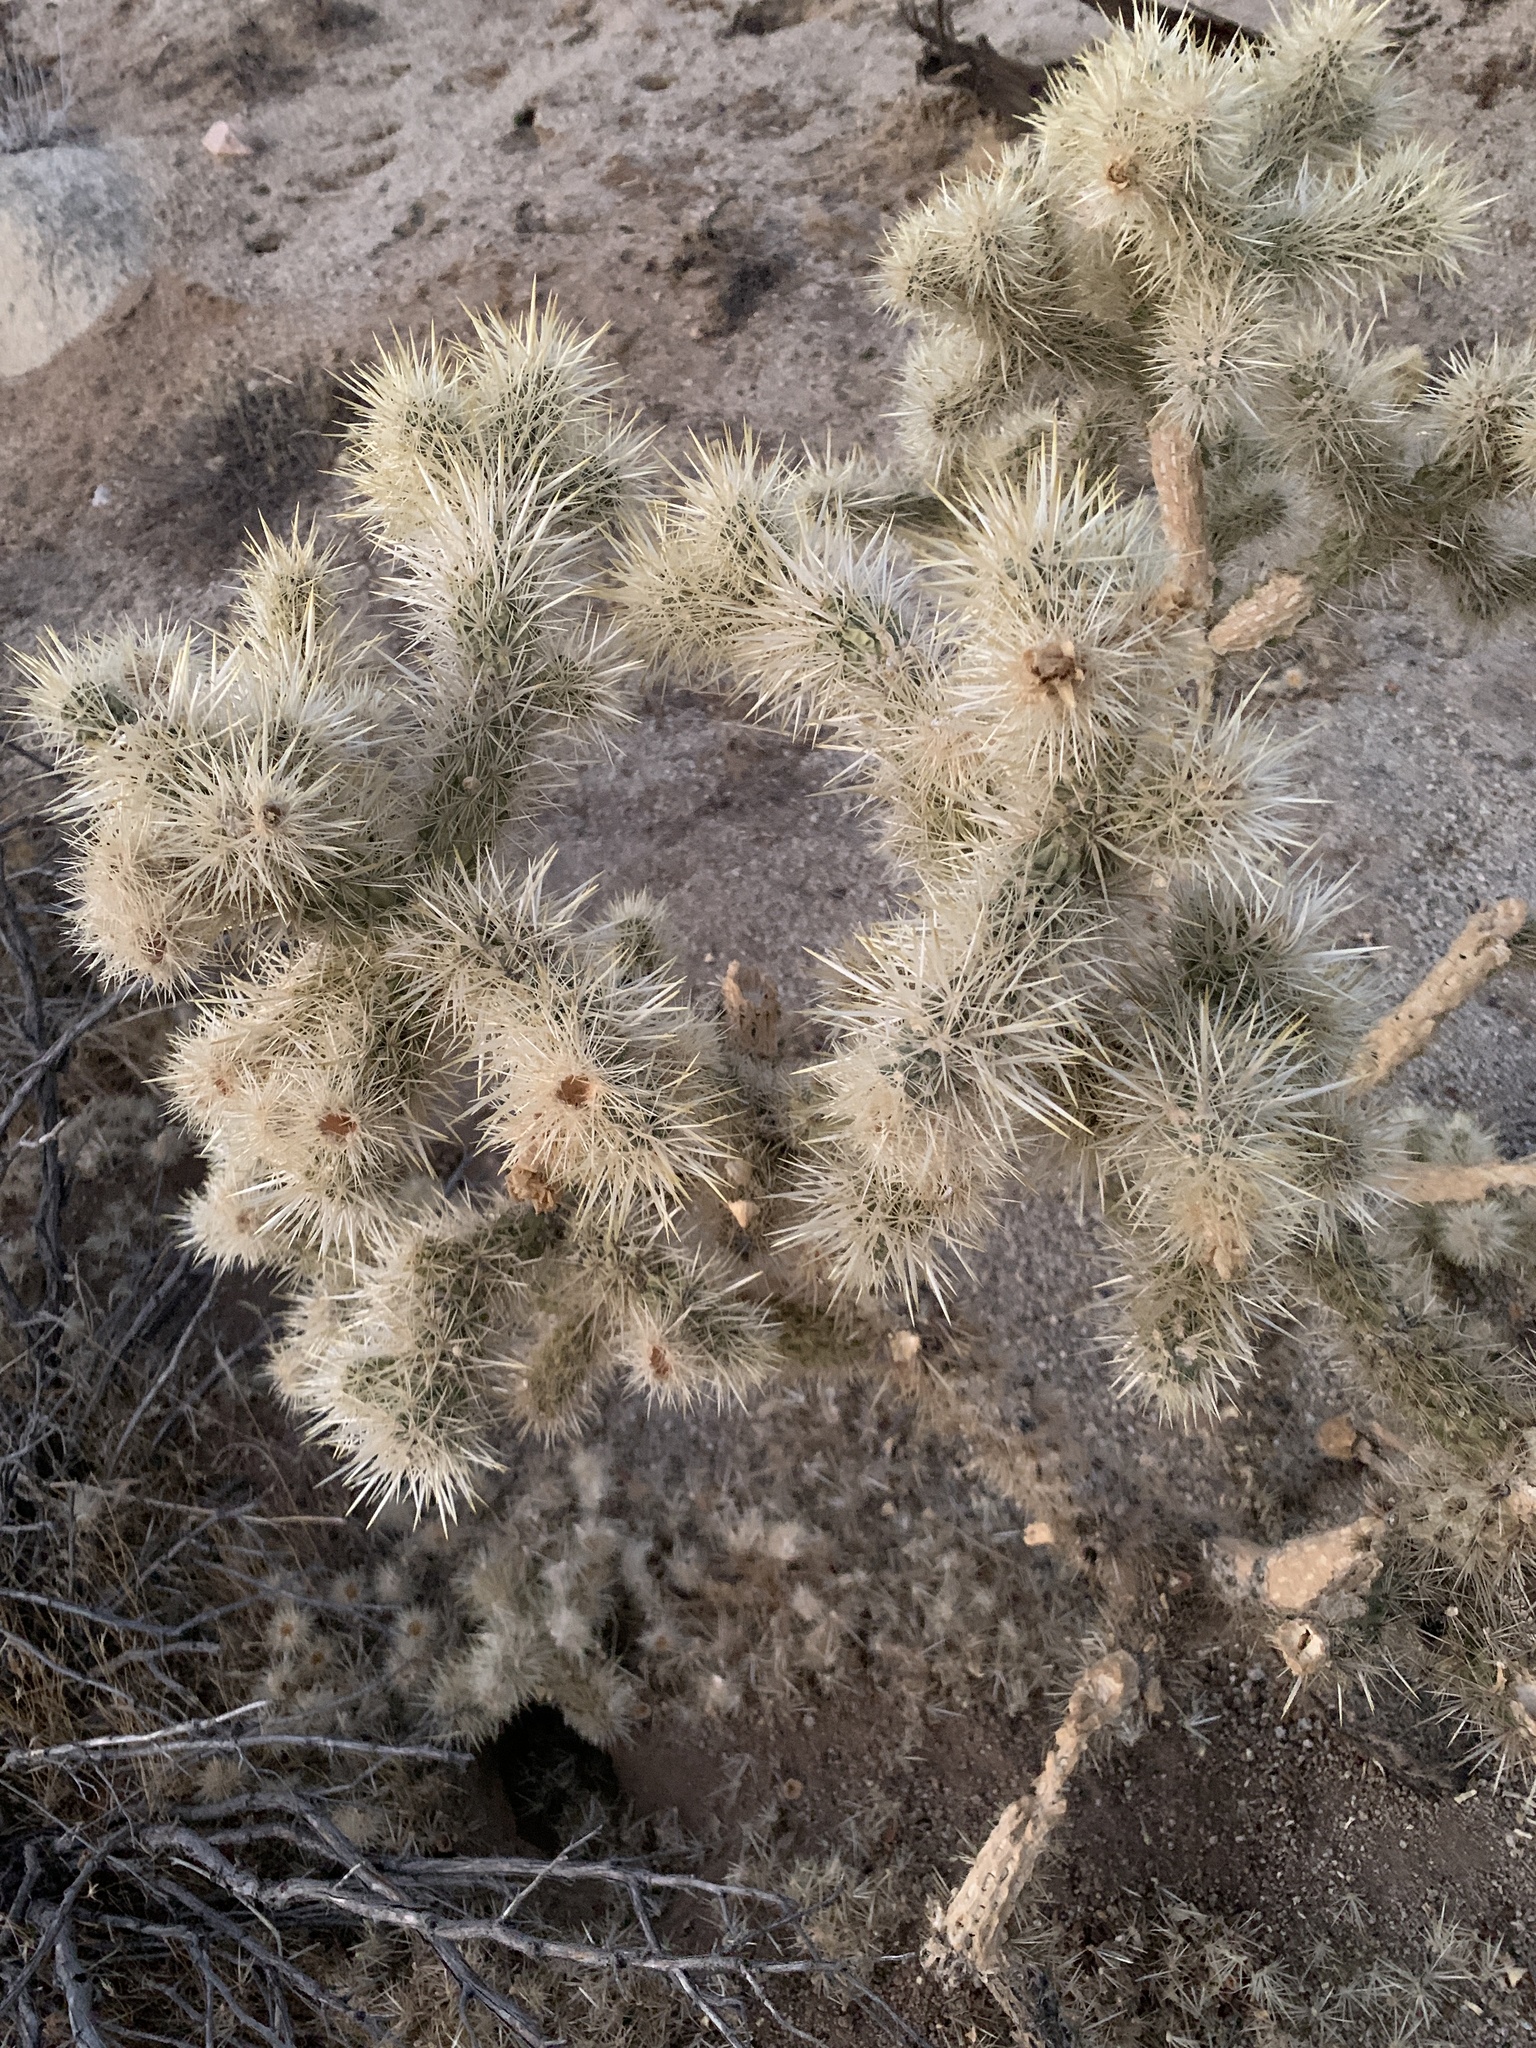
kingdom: Plantae
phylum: Tracheophyta
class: Magnoliopsida
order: Caryophyllales
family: Cactaceae
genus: Cylindropuntia
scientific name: Cylindropuntia echinocarpa
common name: Ground cholla
